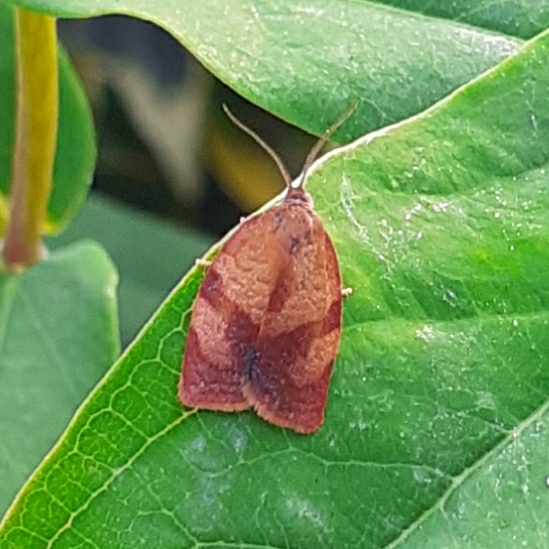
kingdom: Animalia
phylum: Arthropoda
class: Insecta
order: Lepidoptera
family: Tortricidae
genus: Cacoecimorpha
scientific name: Cacoecimorpha pronubana
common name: Carnation tortrix
